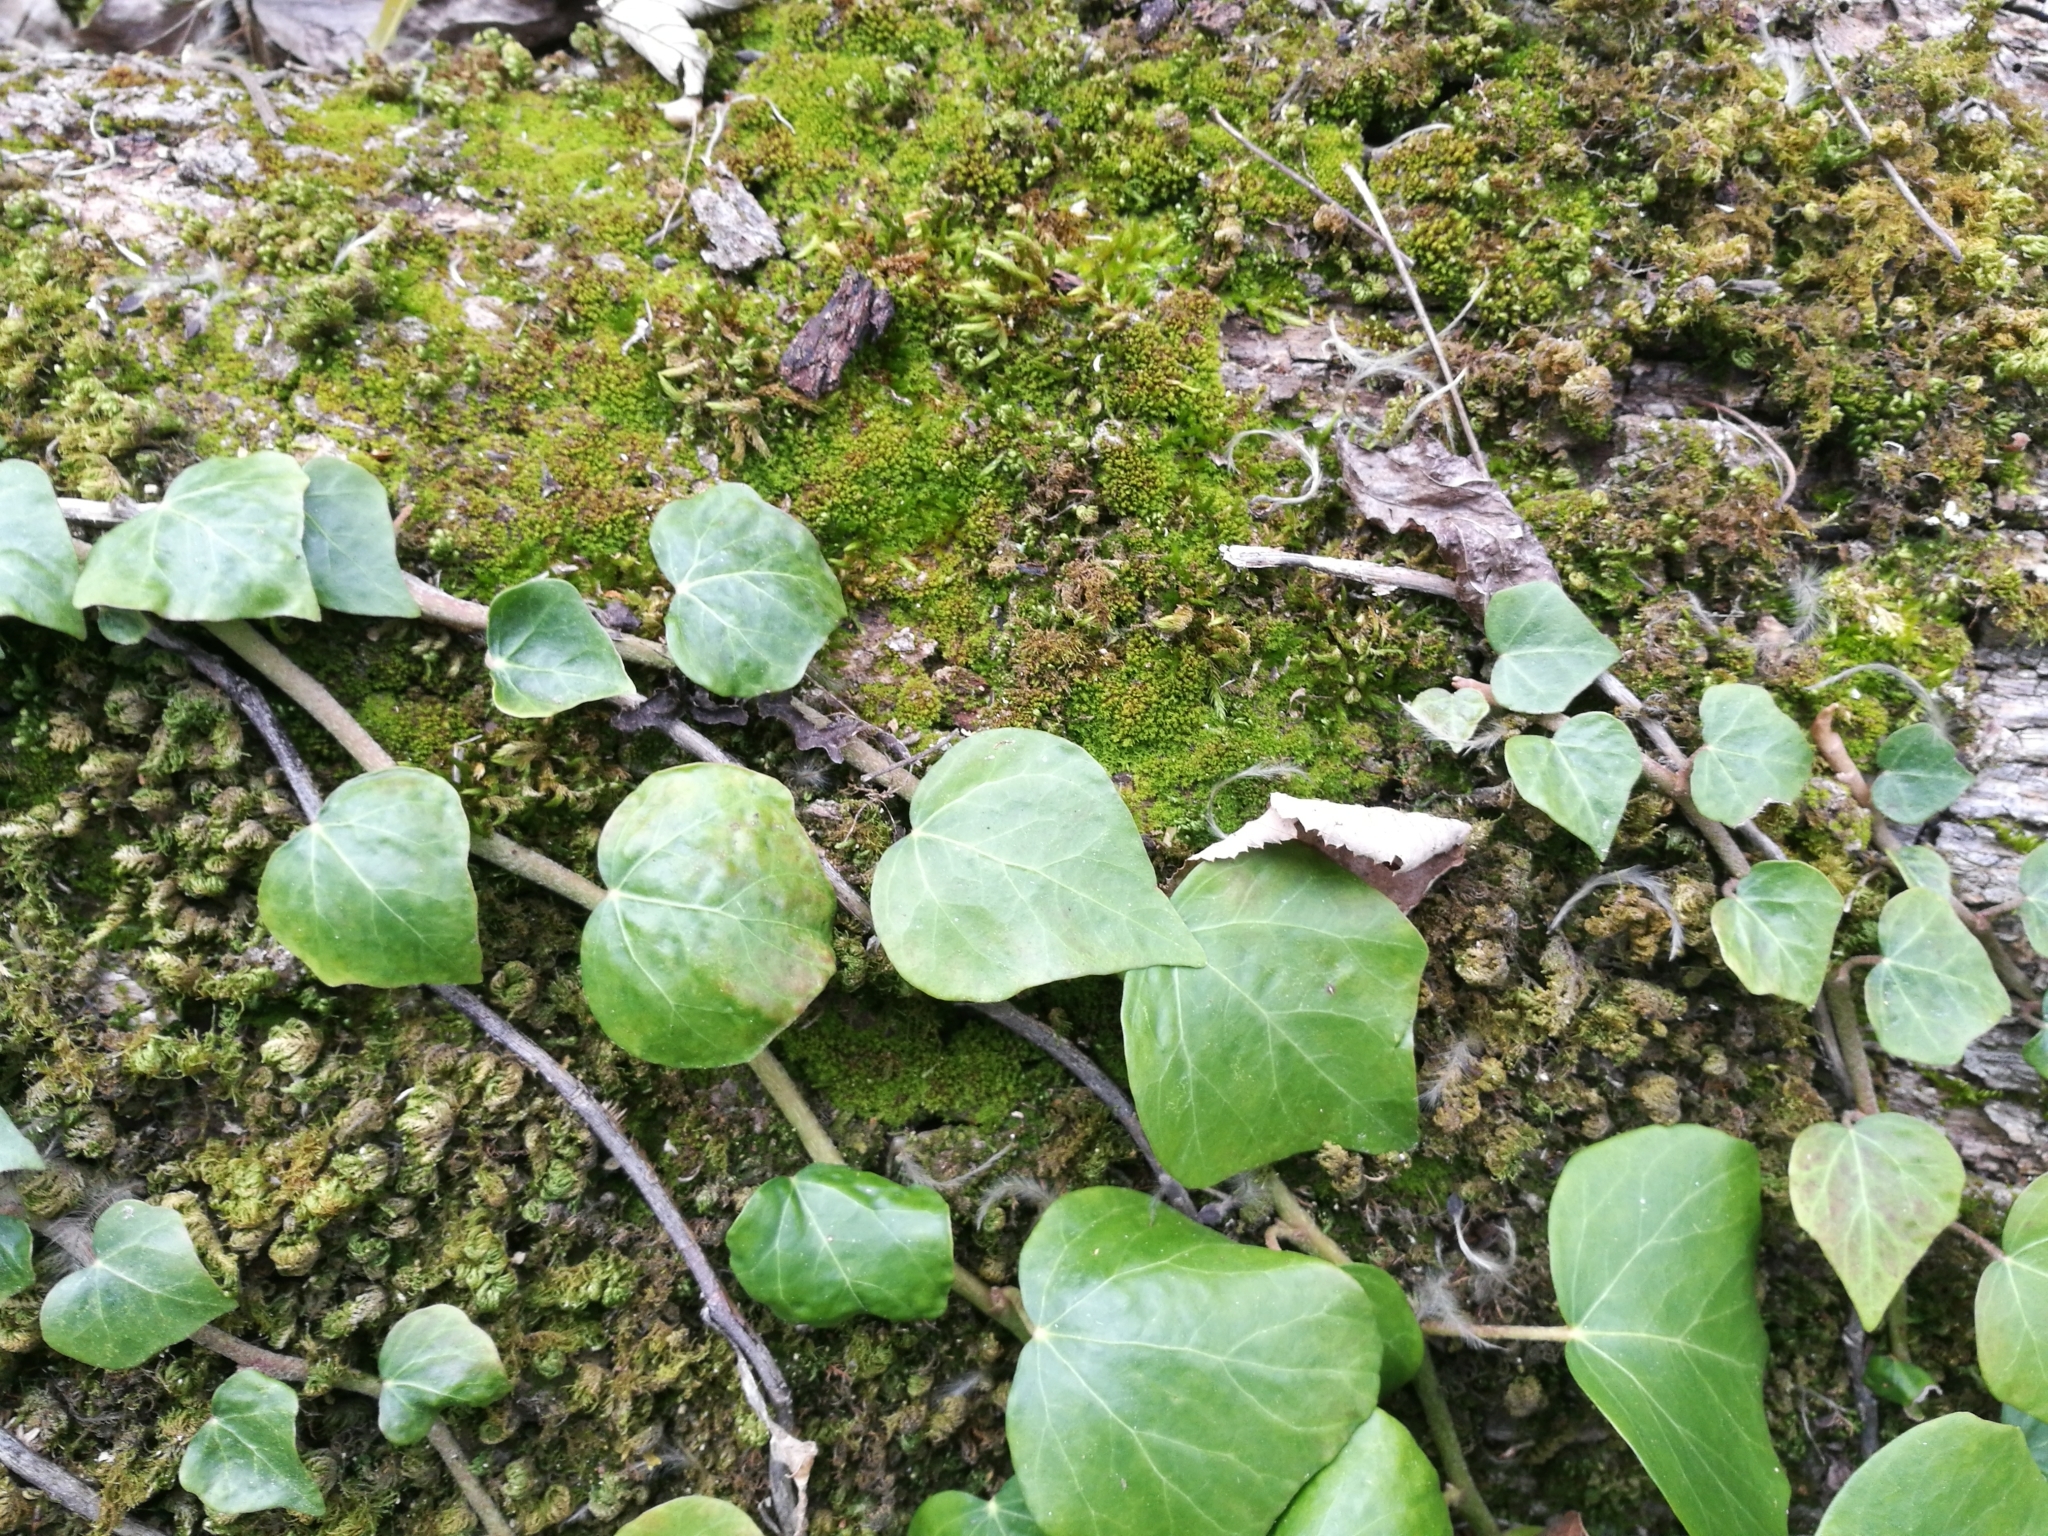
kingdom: Plantae
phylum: Tracheophyta
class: Magnoliopsida
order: Apiales
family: Araliaceae
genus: Hedera
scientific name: Hedera helix
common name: Ivy
